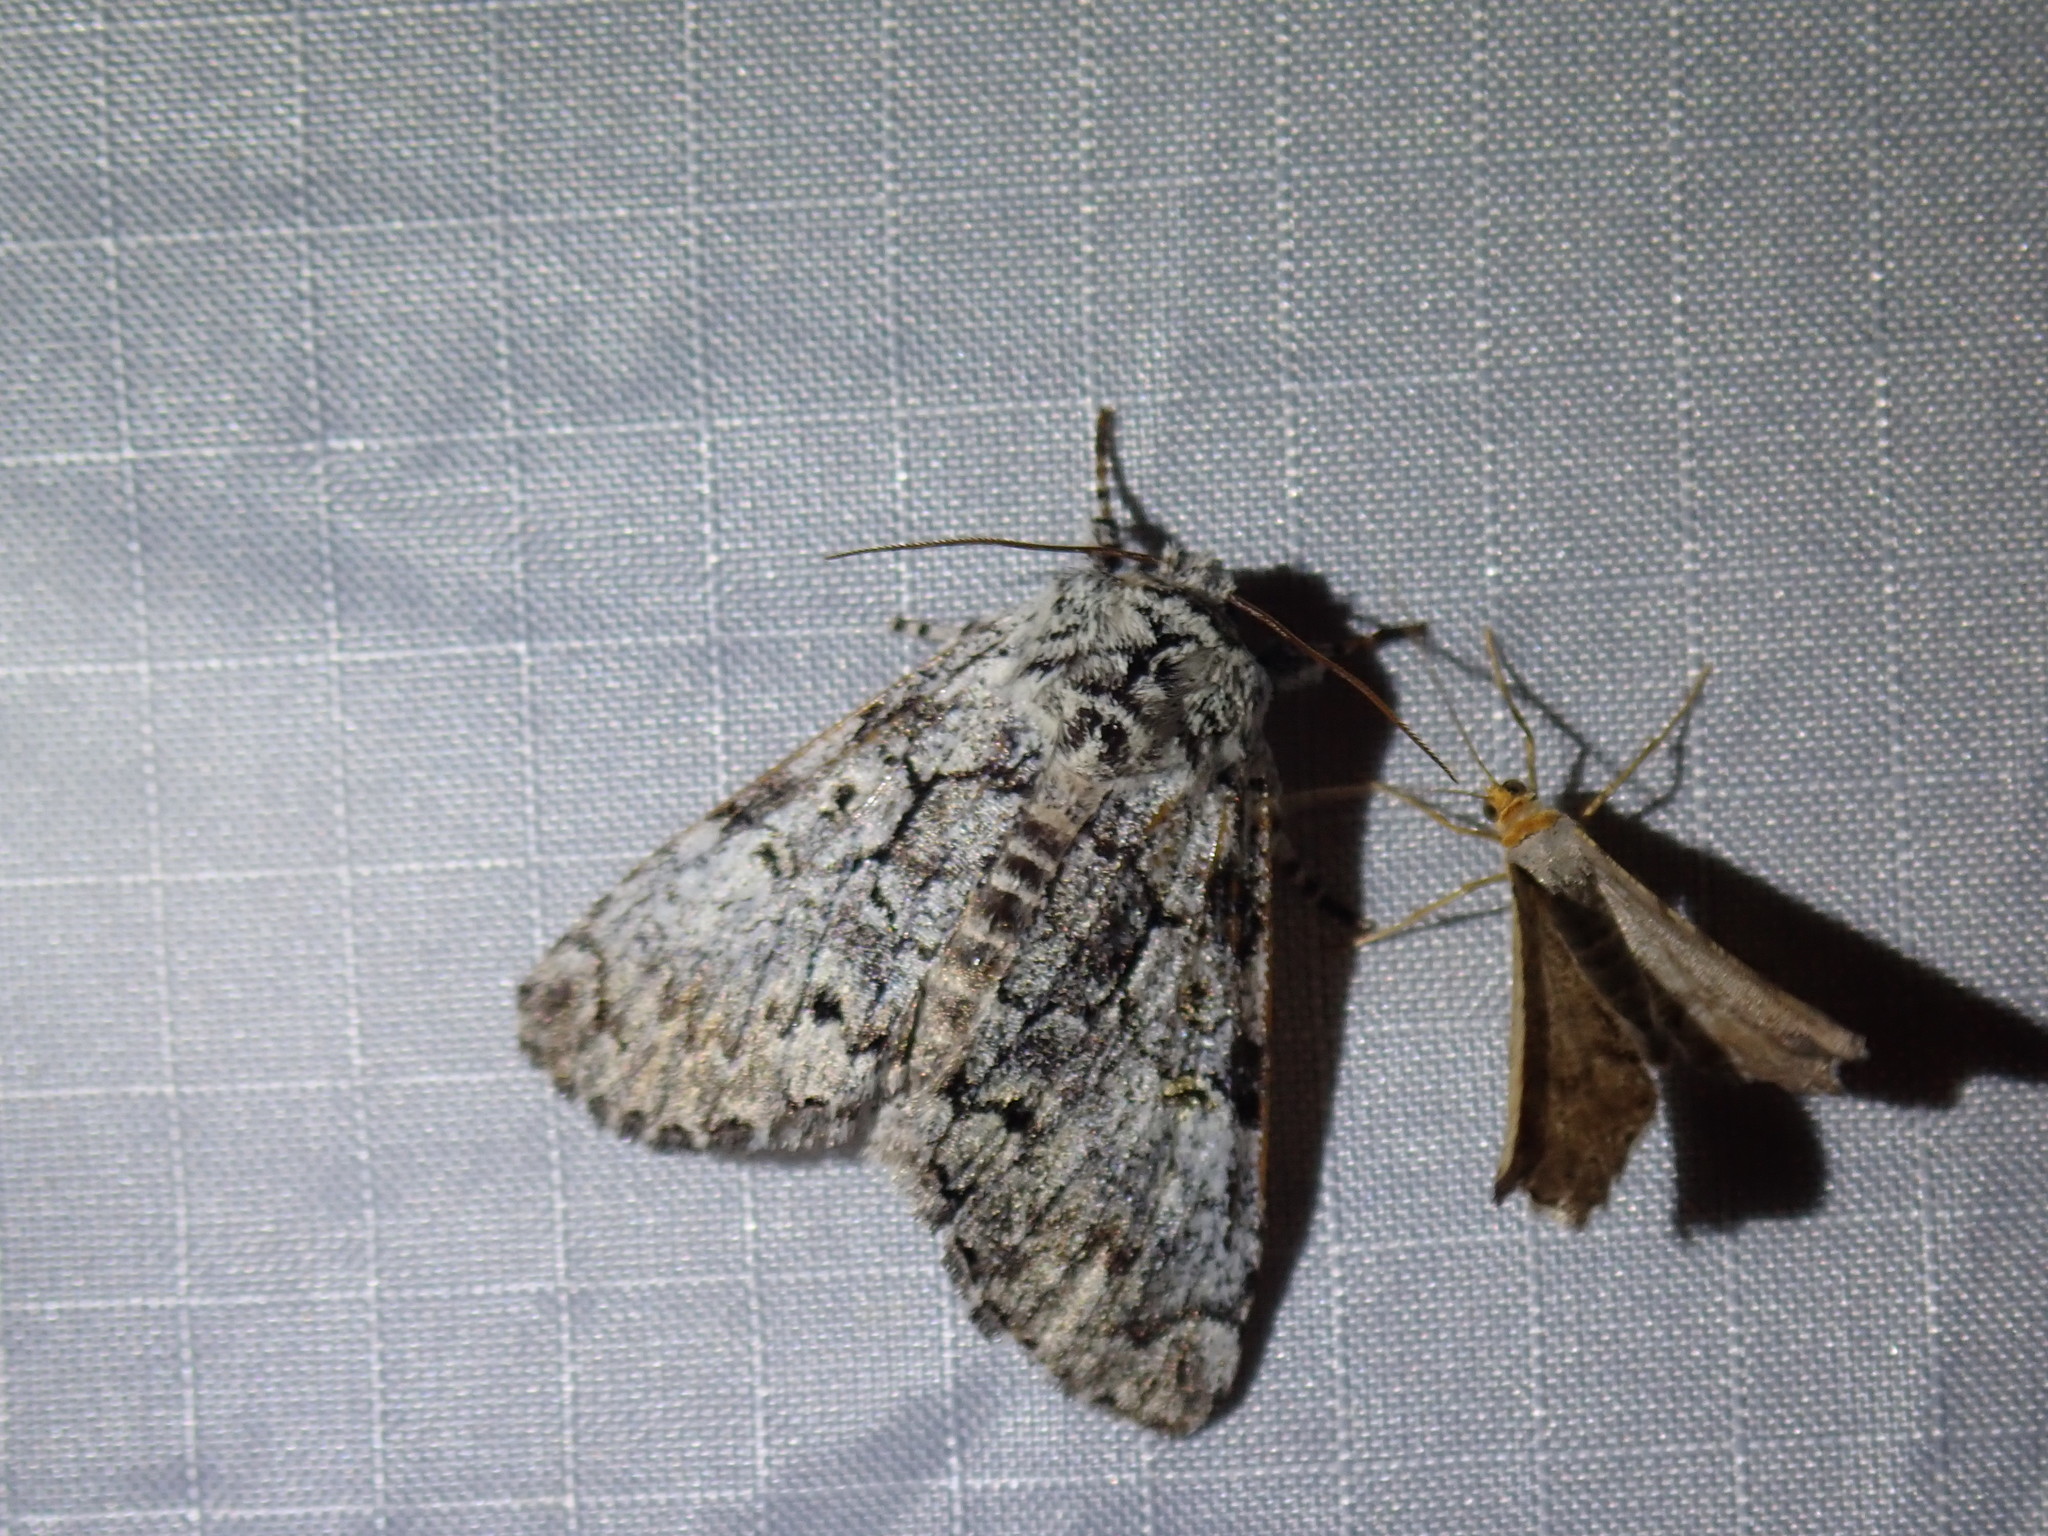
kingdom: Animalia
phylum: Arthropoda
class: Insecta
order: Lepidoptera
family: Noctuidae
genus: Charadra
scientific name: Charadra deridens
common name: Marbled tuffet
